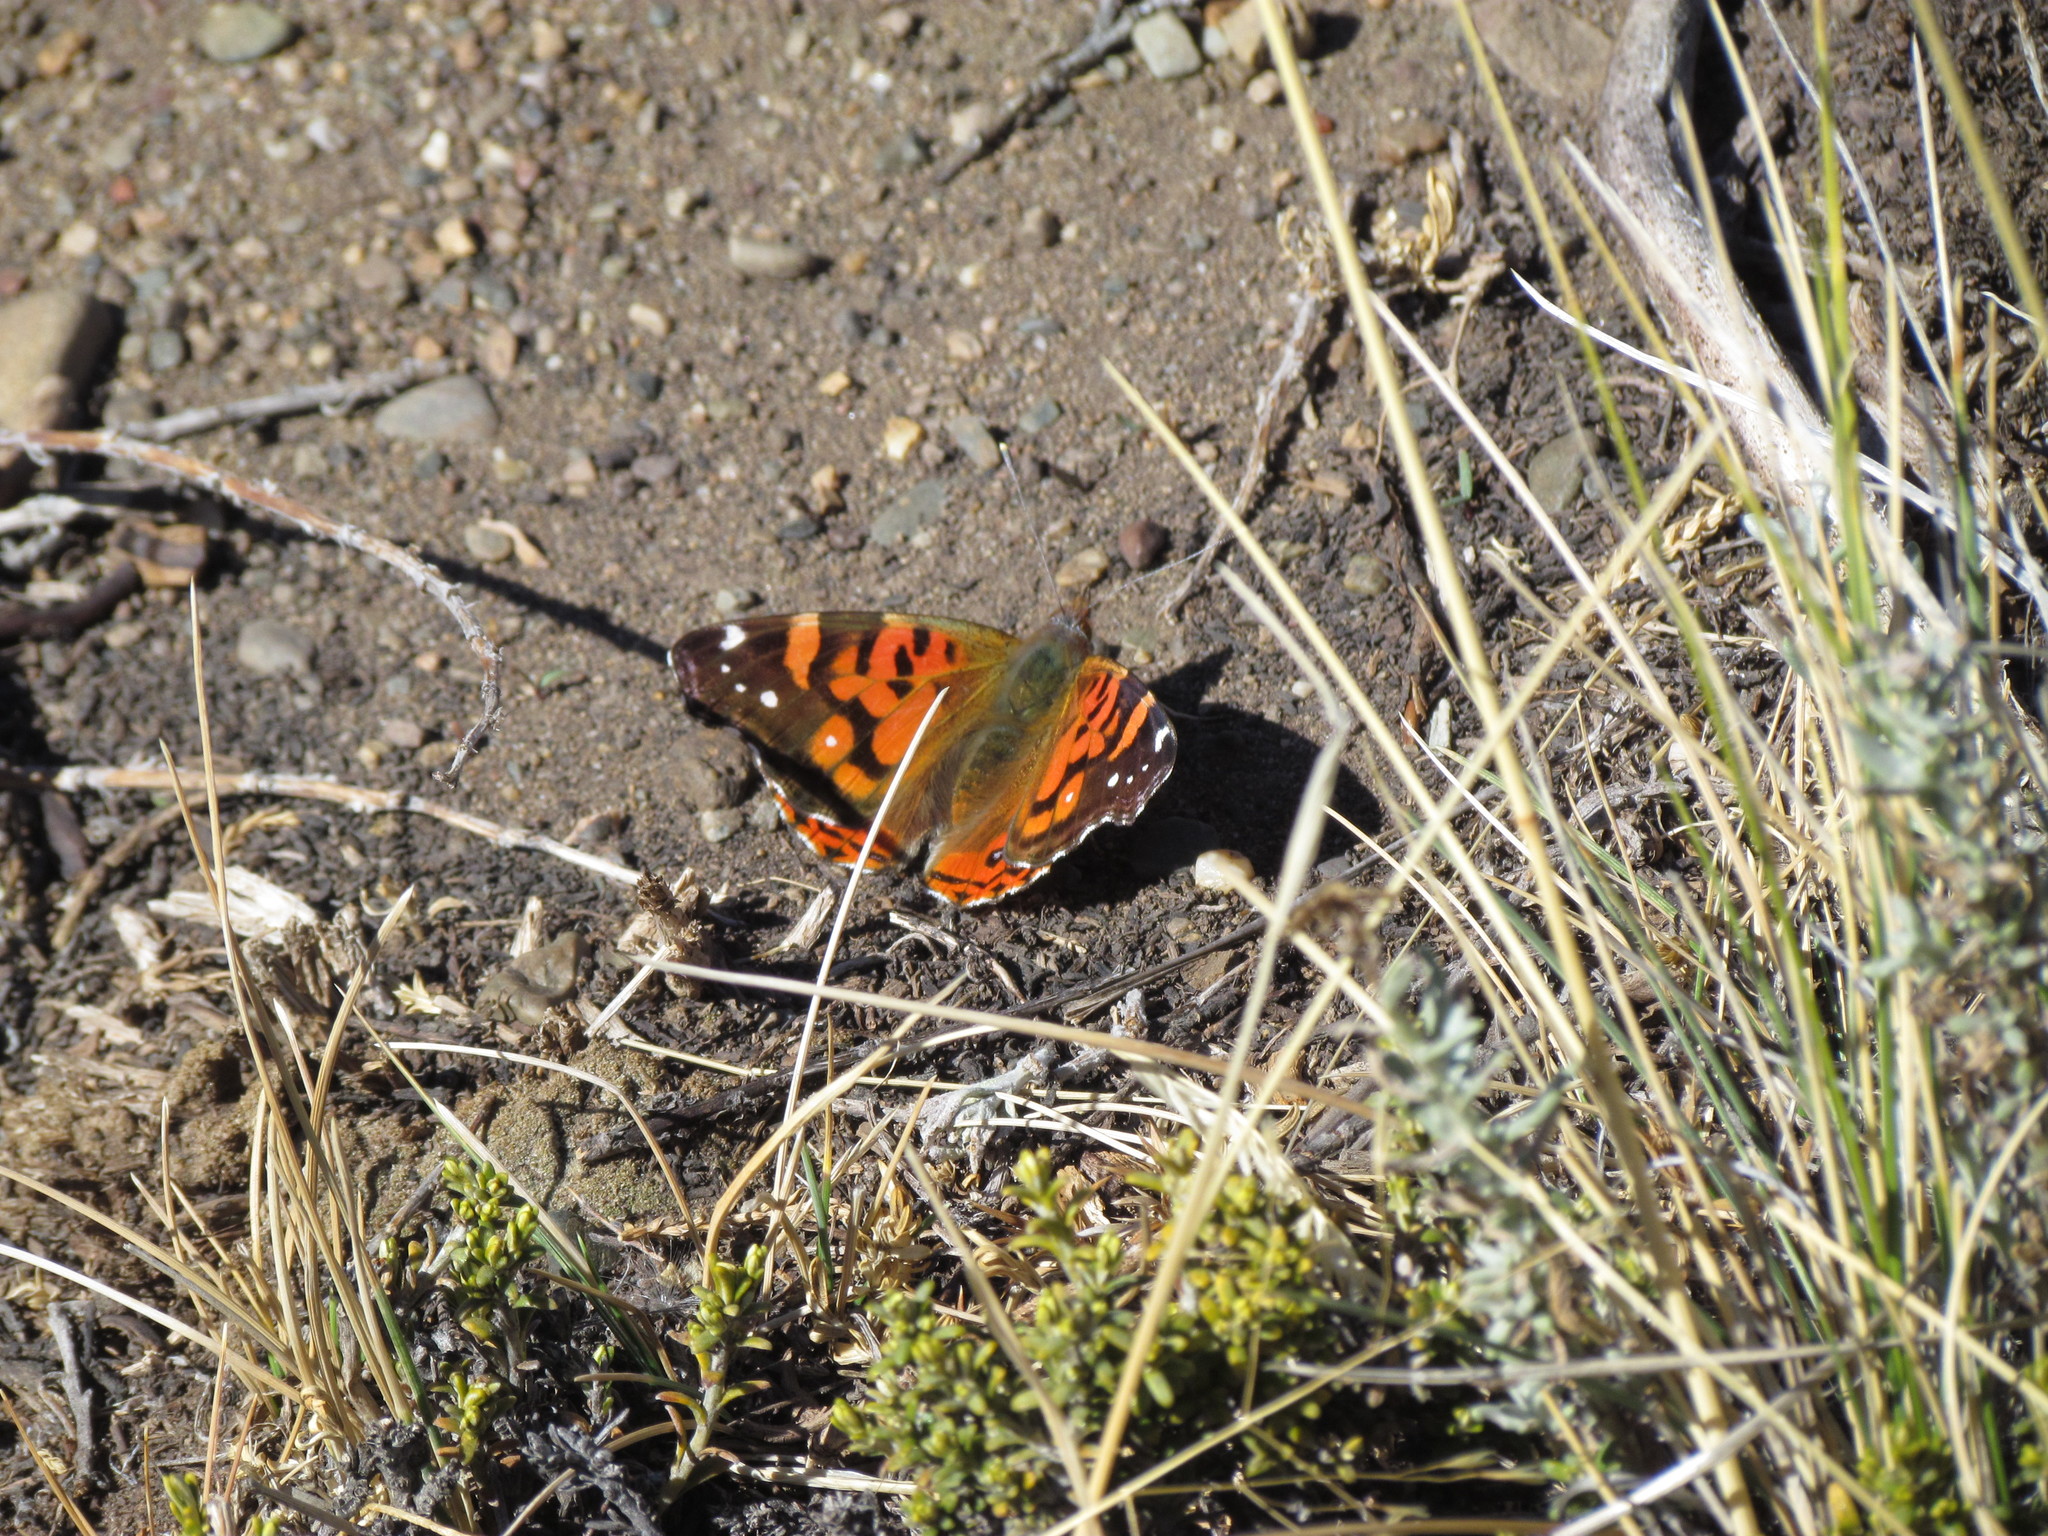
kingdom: Animalia
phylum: Arthropoda
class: Insecta
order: Lepidoptera
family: Nymphalidae
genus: Vanessa
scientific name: Vanessa terpsichore
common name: Chilean lady
